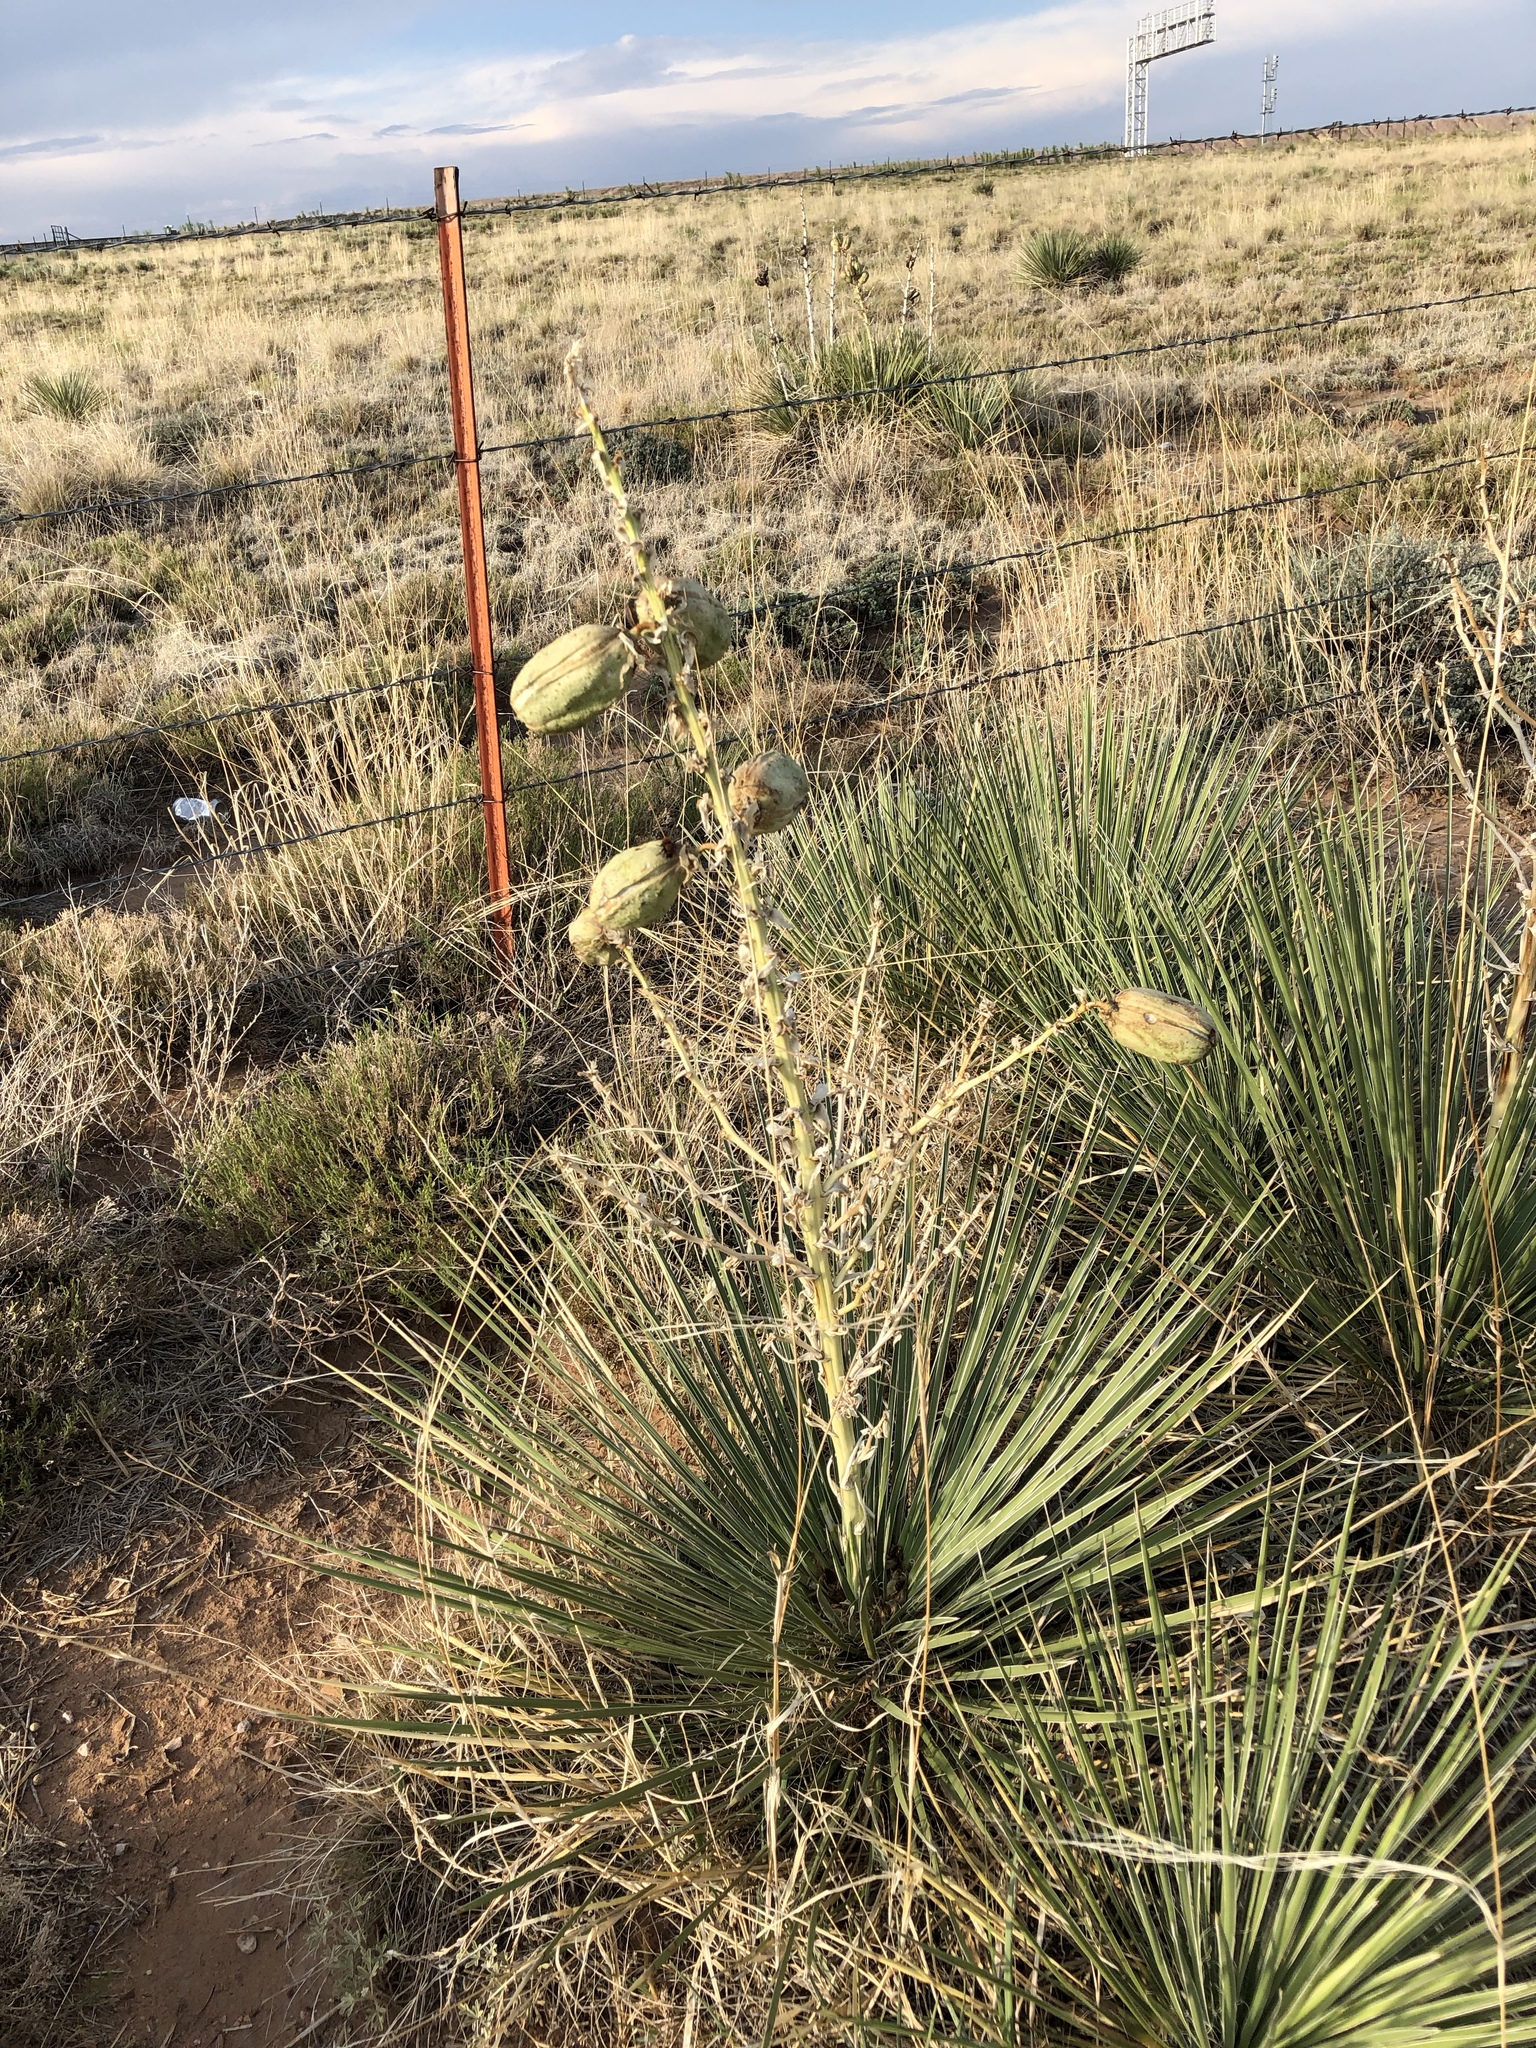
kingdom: Plantae
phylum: Tracheophyta
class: Liliopsida
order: Asparagales
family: Asparagaceae
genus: Yucca
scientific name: Yucca glauca
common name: Great plains yucca
